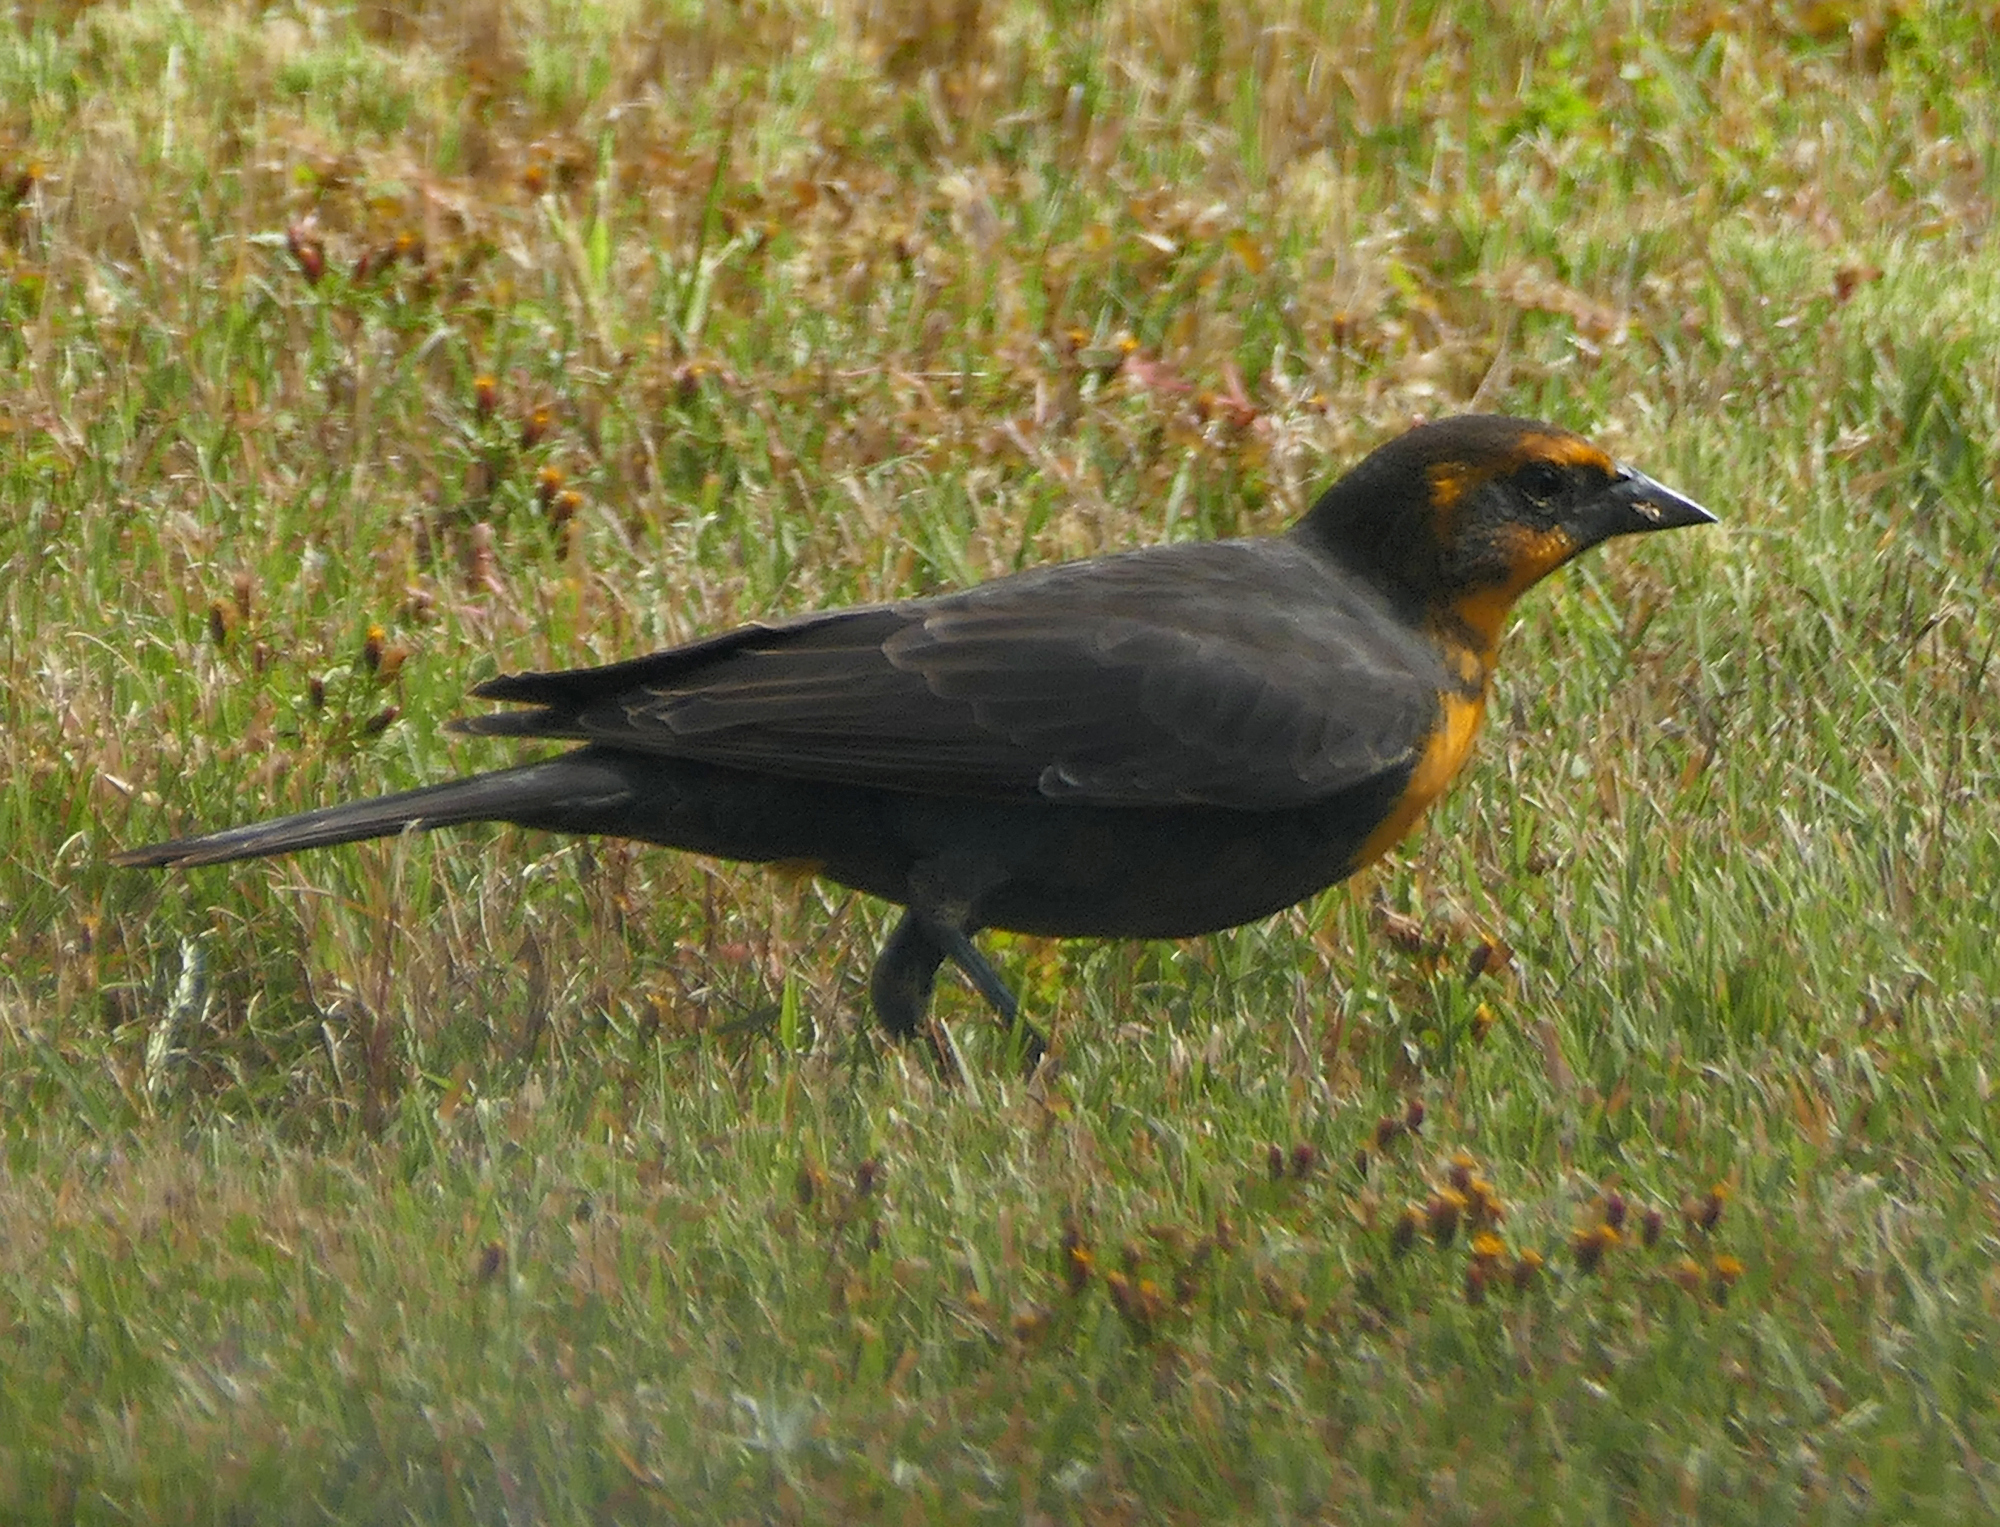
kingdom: Animalia
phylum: Chordata
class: Aves
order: Passeriformes
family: Icteridae
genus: Xanthocephalus
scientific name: Xanthocephalus xanthocephalus
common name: Yellow-headed blackbird
